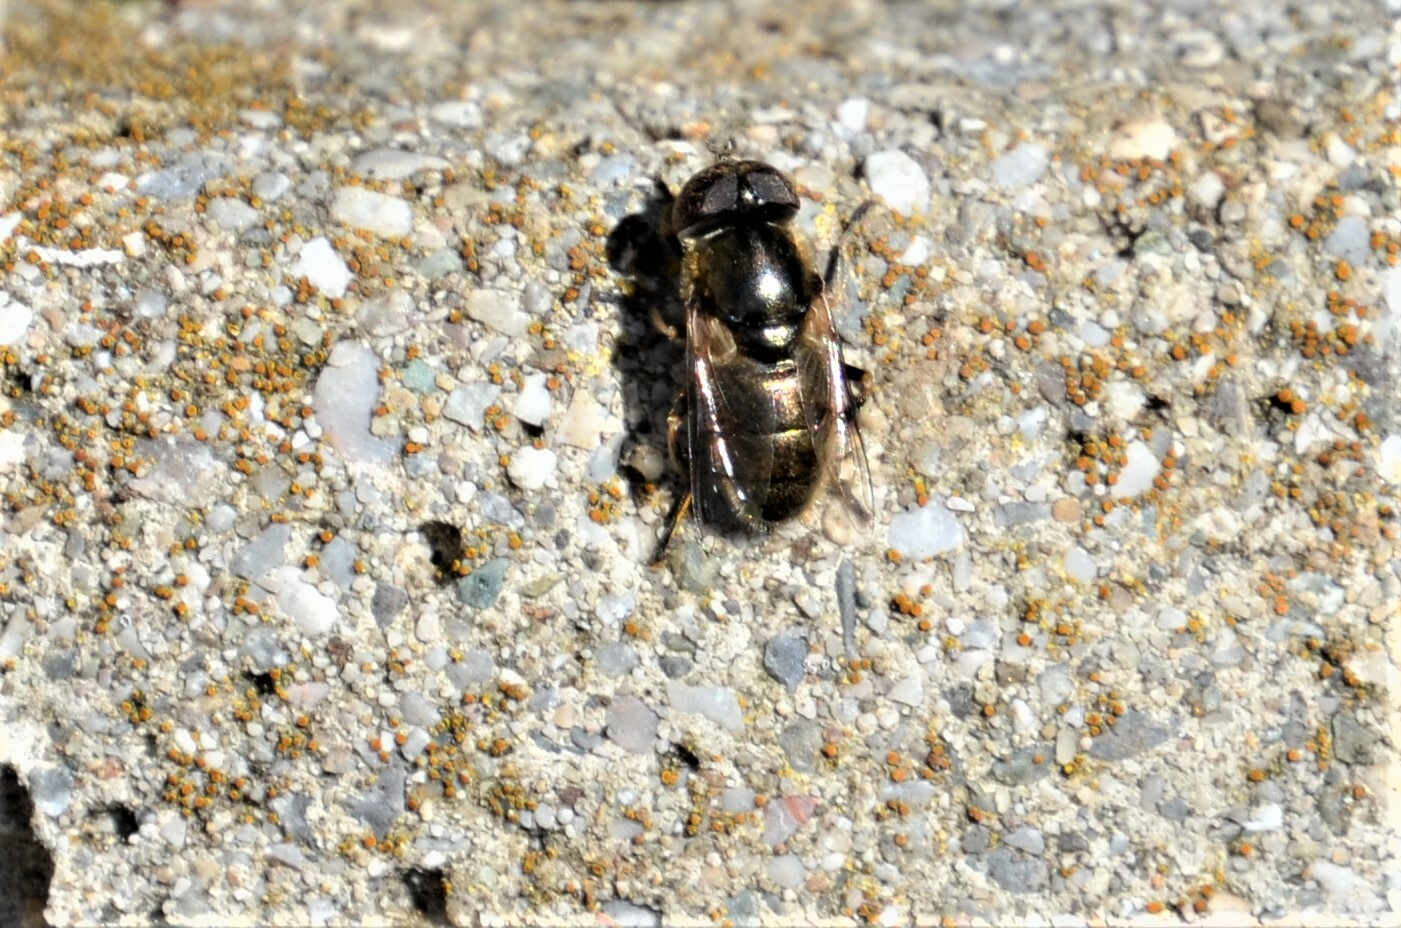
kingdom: Animalia
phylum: Arthropoda
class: Insecta
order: Diptera
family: Syrphidae
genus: Eristalinus
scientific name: Eristalinus aeneus
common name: Syrphid fly
